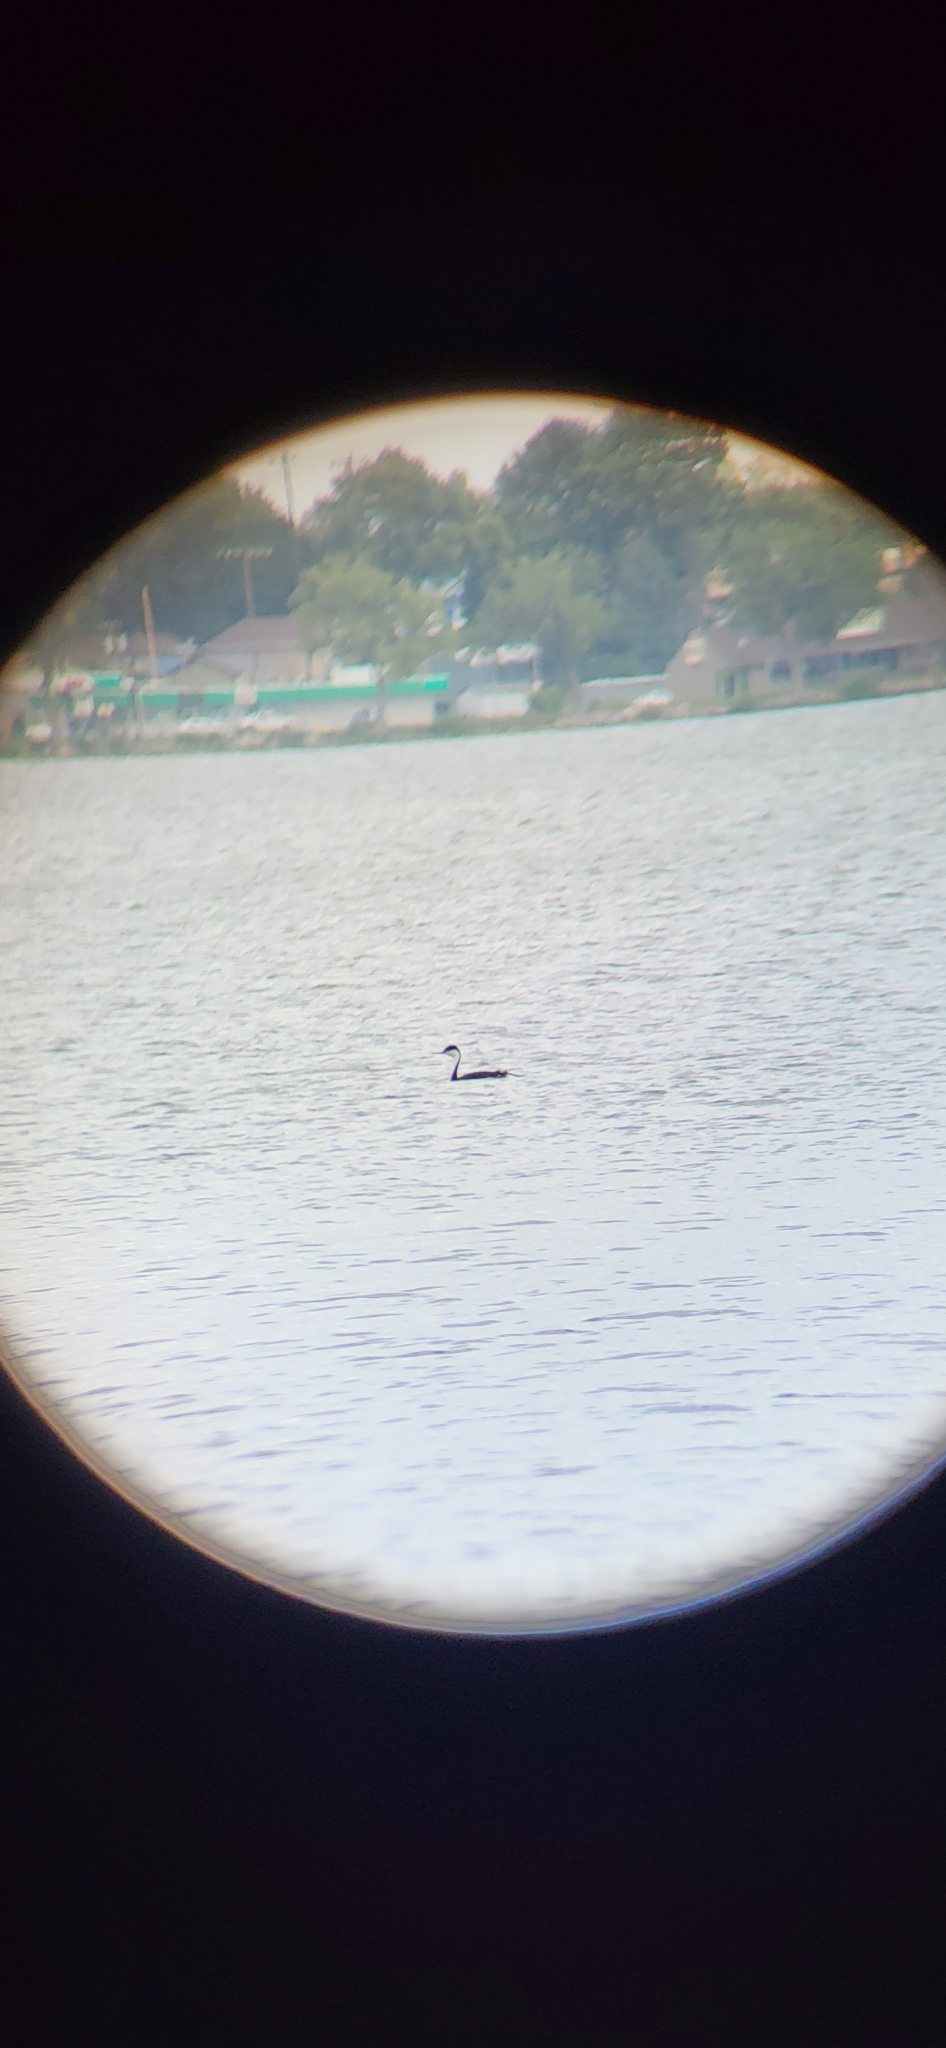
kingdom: Animalia
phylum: Chordata
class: Aves
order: Podicipediformes
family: Podicipedidae
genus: Aechmophorus
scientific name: Aechmophorus occidentalis
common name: Western grebe
